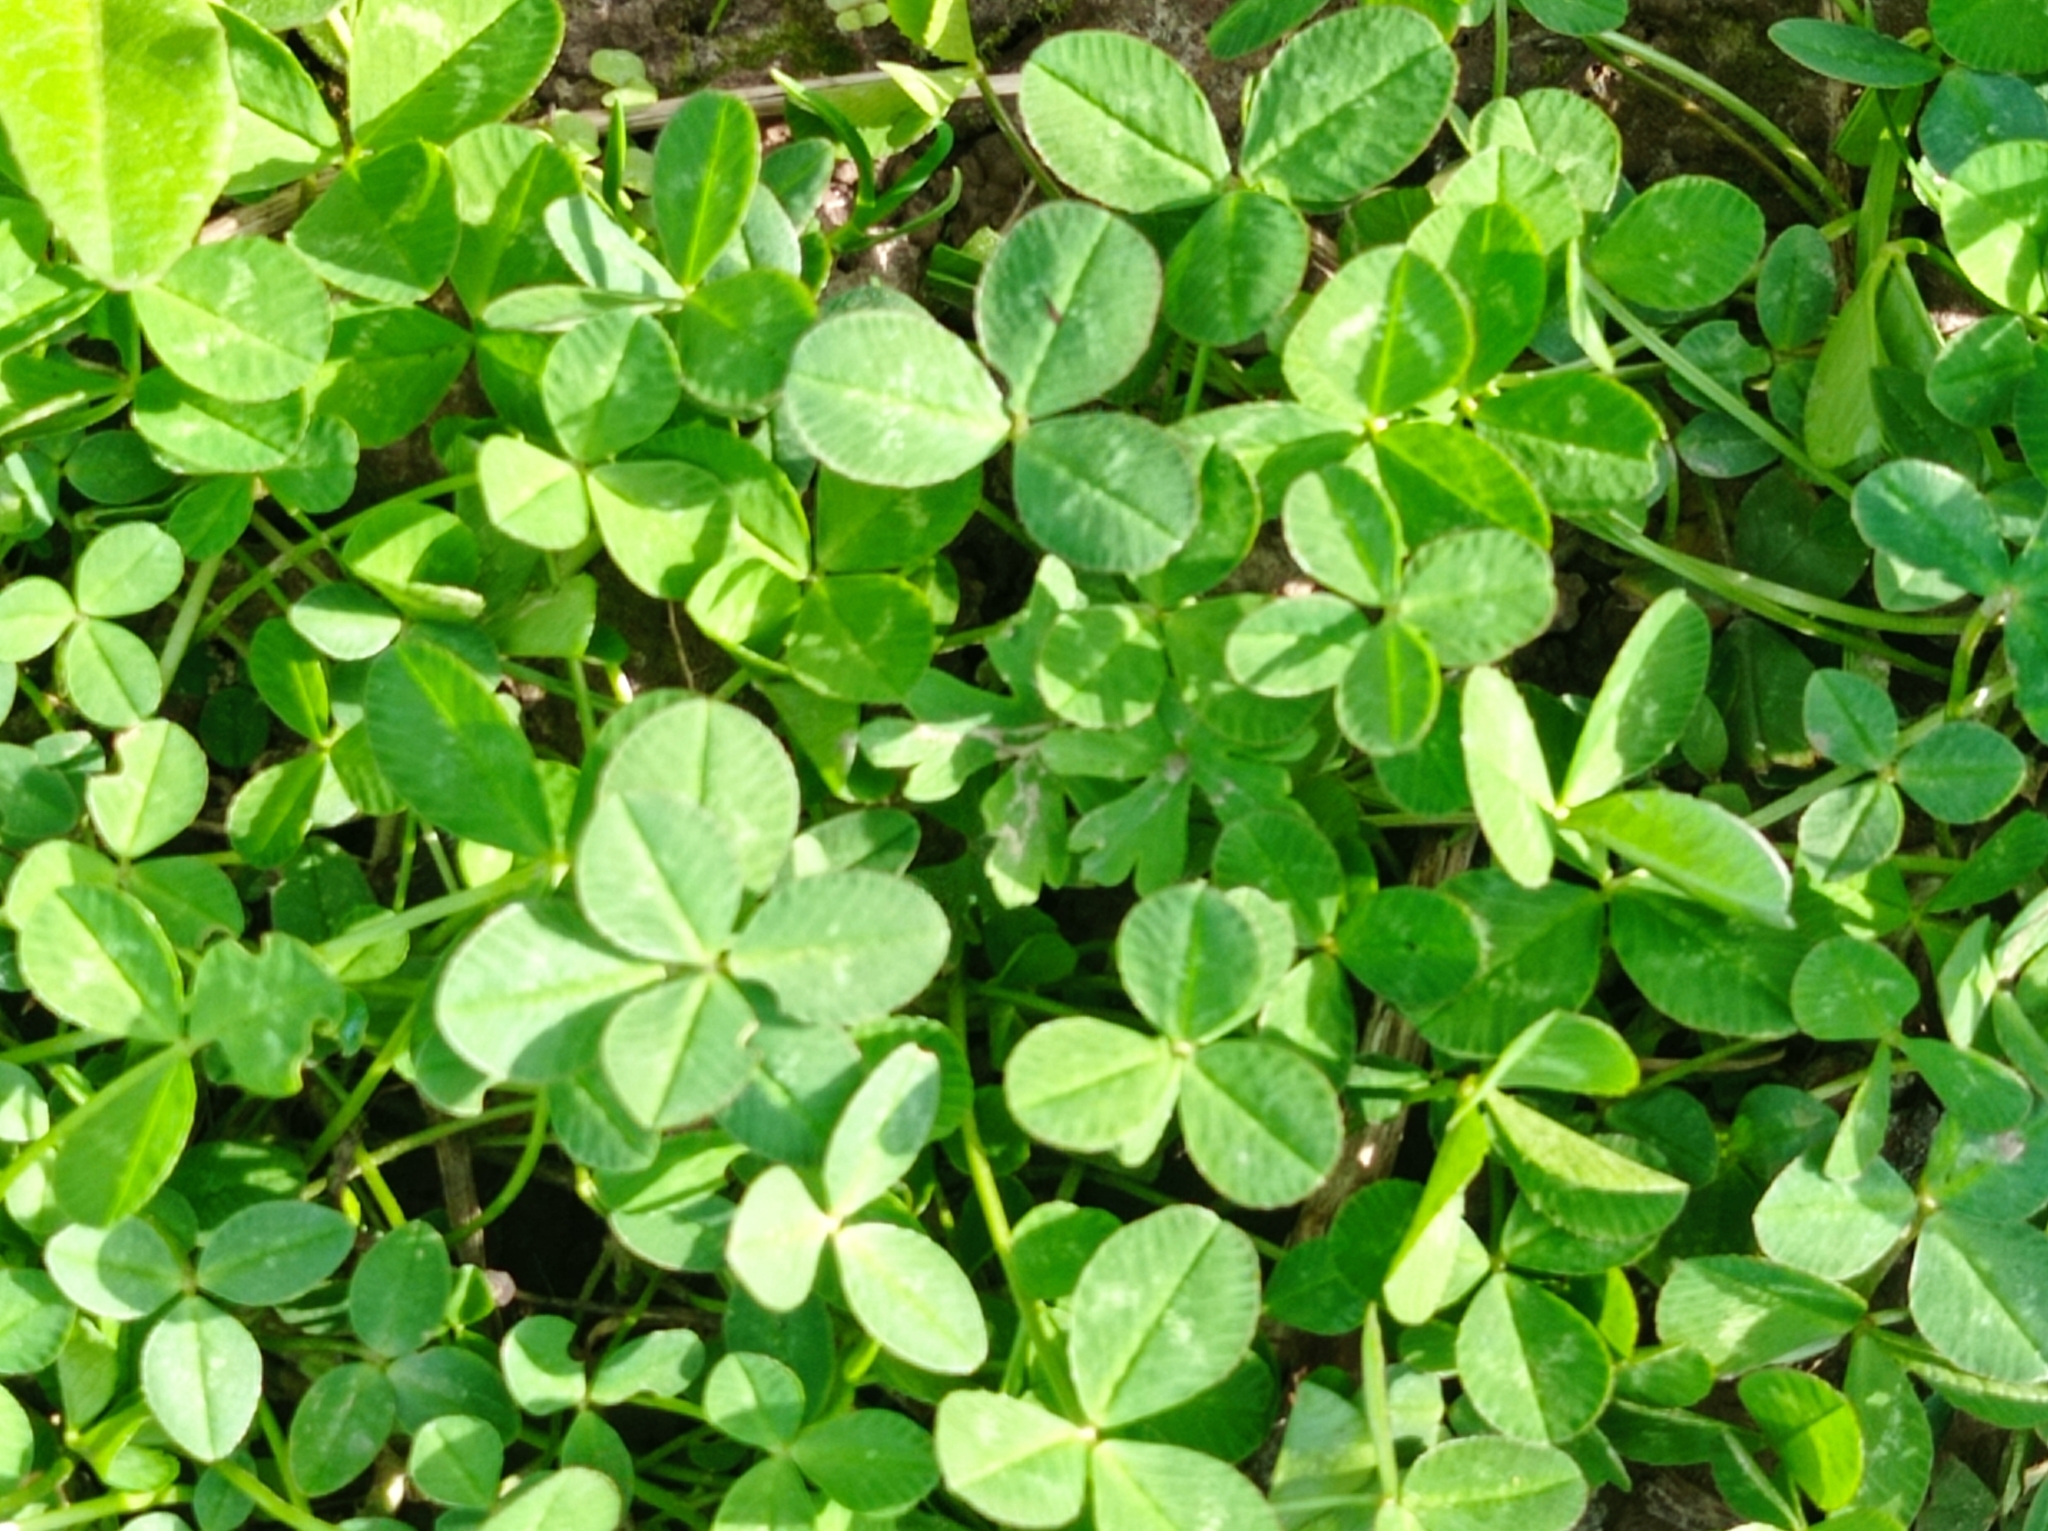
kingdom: Plantae
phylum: Tracheophyta
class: Magnoliopsida
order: Fabales
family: Fabaceae
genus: Trifolium
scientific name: Trifolium repens
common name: White clover
